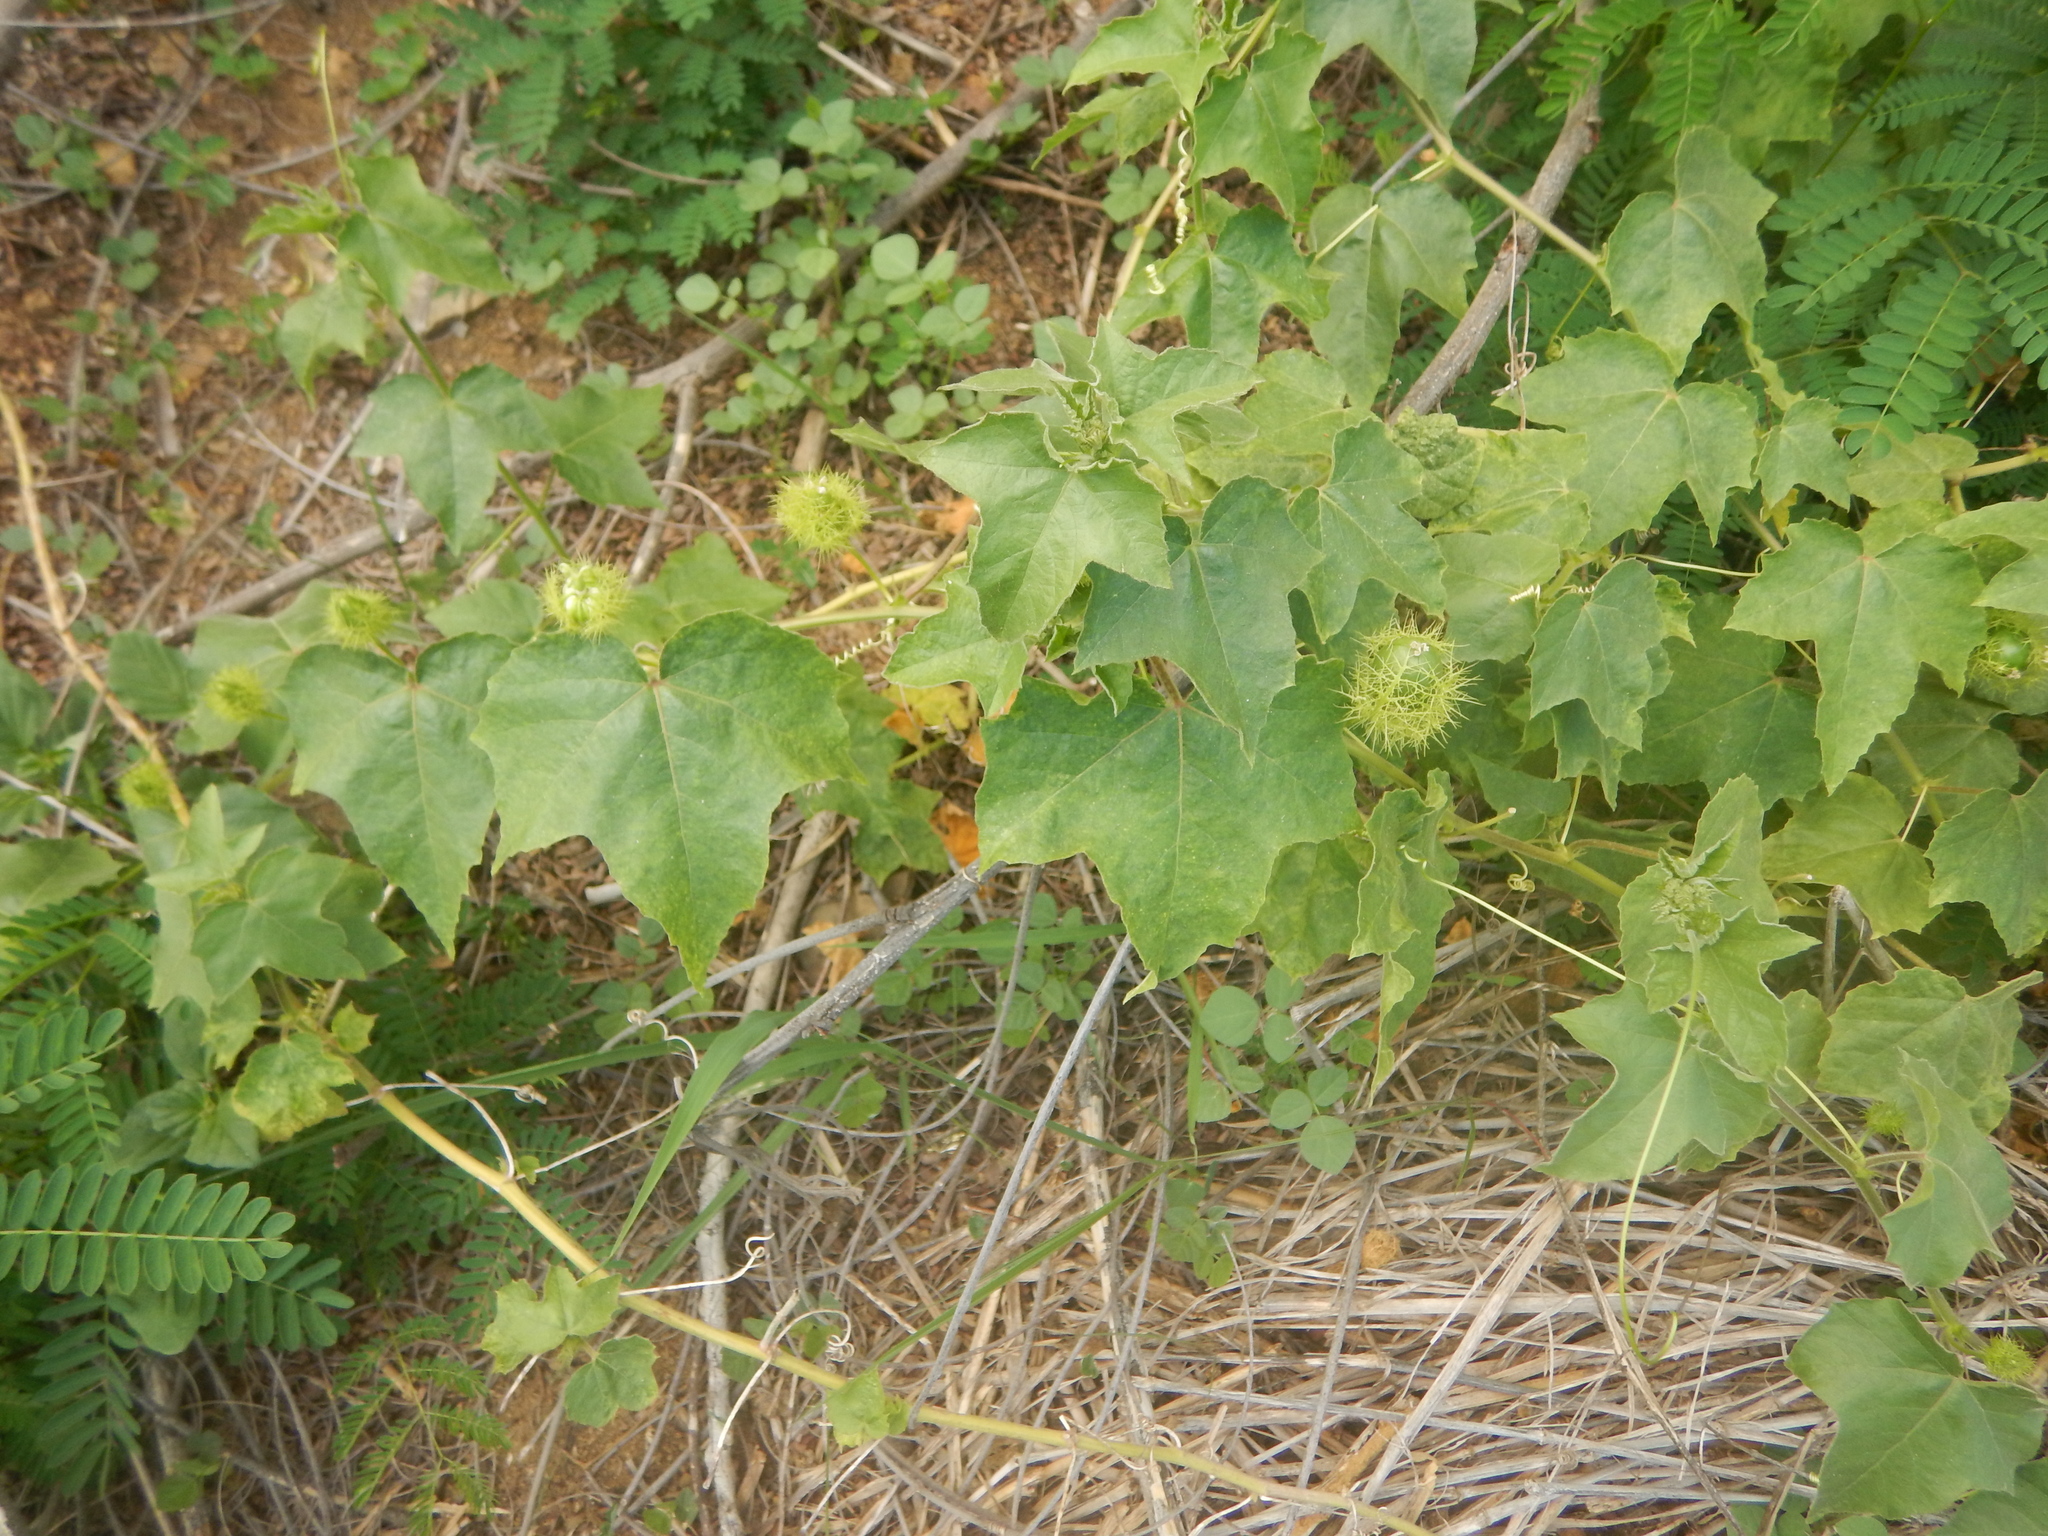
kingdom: Plantae
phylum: Tracheophyta
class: Magnoliopsida
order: Malpighiales
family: Passifloraceae
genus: Passiflora
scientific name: Passiflora foetida
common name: Fetid passionflower
